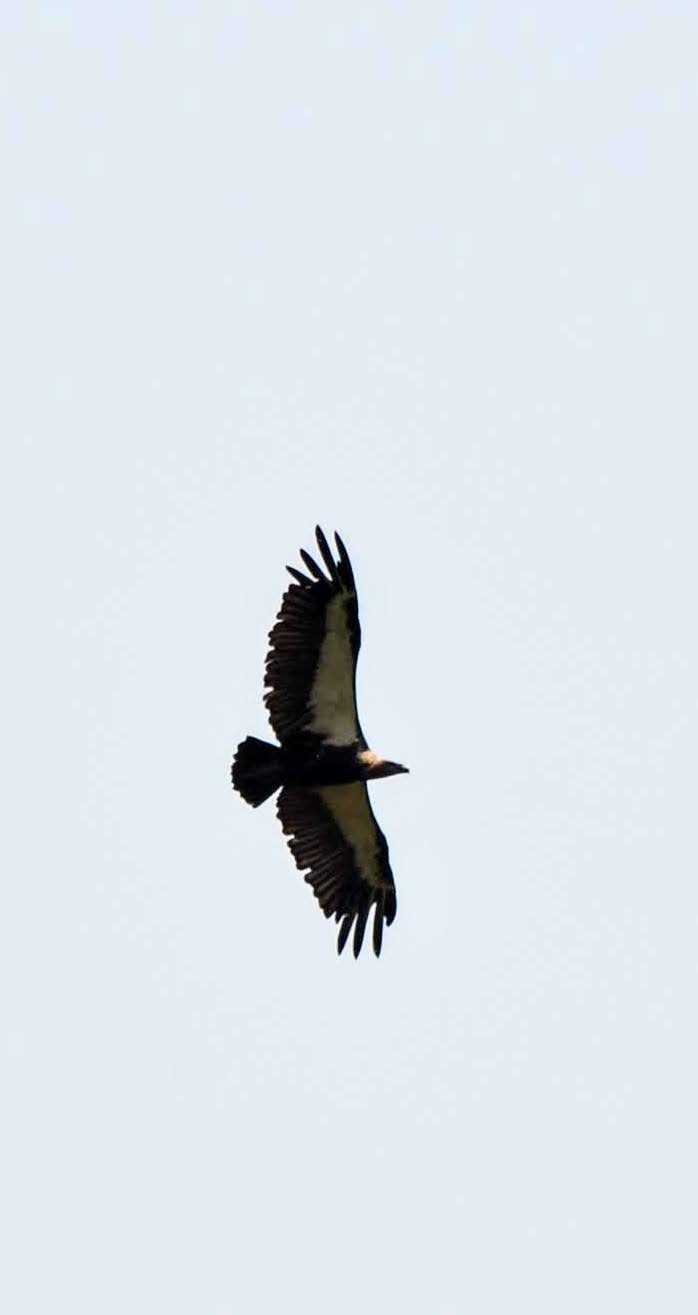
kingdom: Animalia
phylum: Chordata
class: Aves
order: Accipitriformes
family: Accipitridae
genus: Gyps
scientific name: Gyps bengalensis
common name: White-rumped vulture
